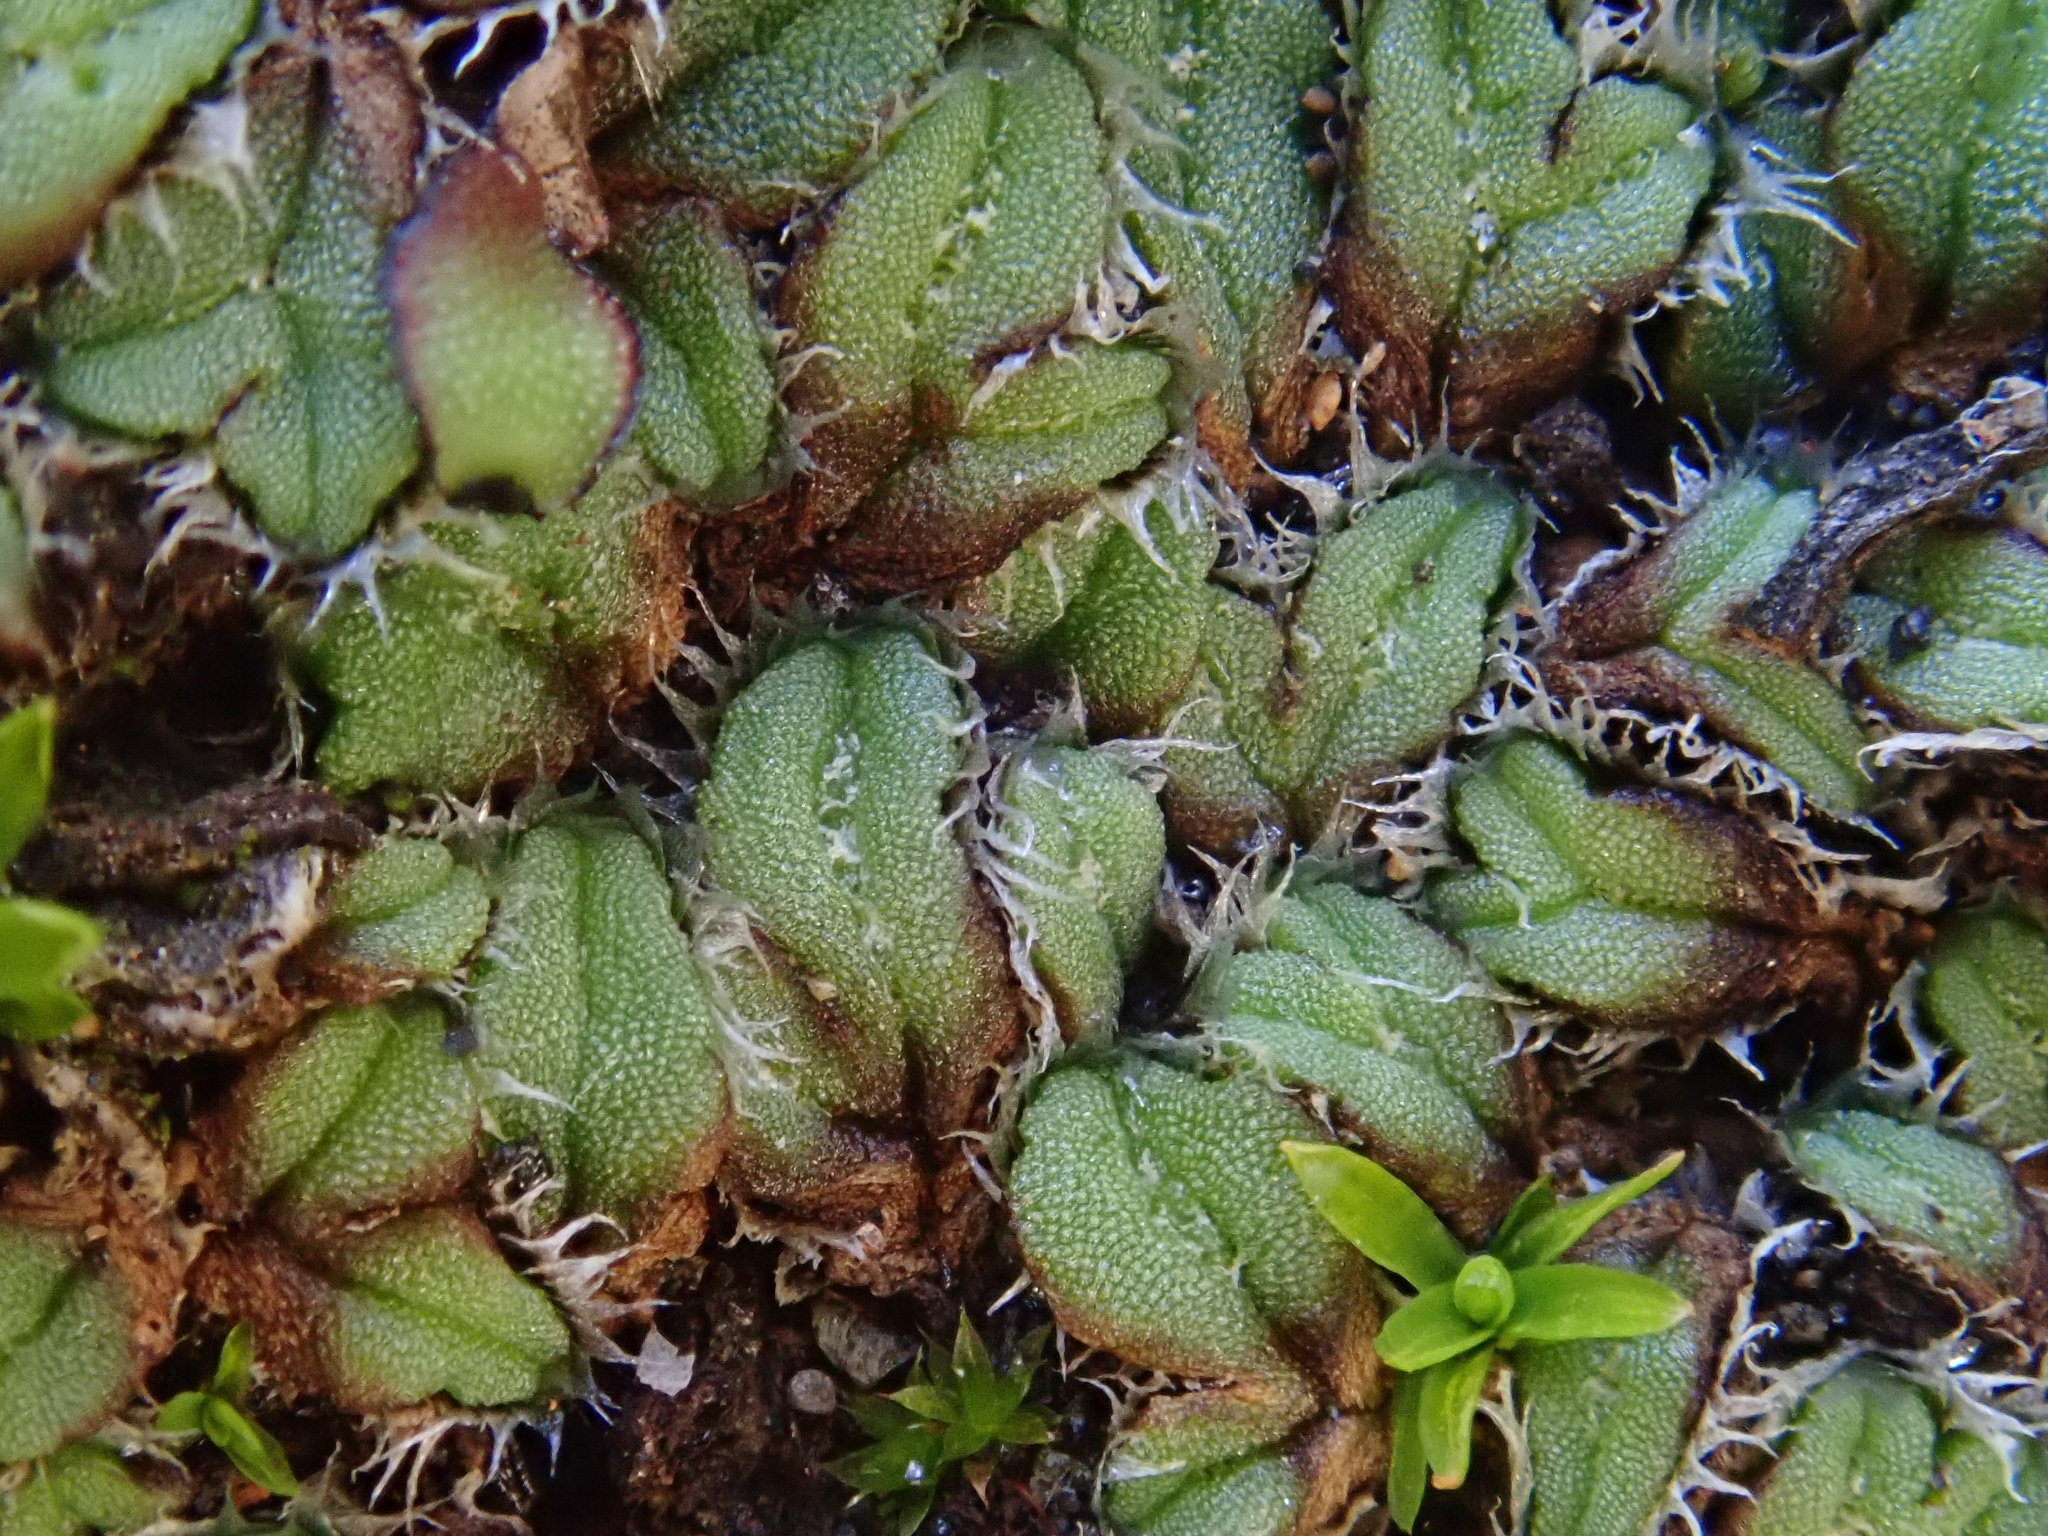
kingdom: Plantae
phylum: Marchantiophyta
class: Marchantiopsida
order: Marchantiales
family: Ricciaceae
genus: Oxymitra
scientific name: Oxymitra incrassata
